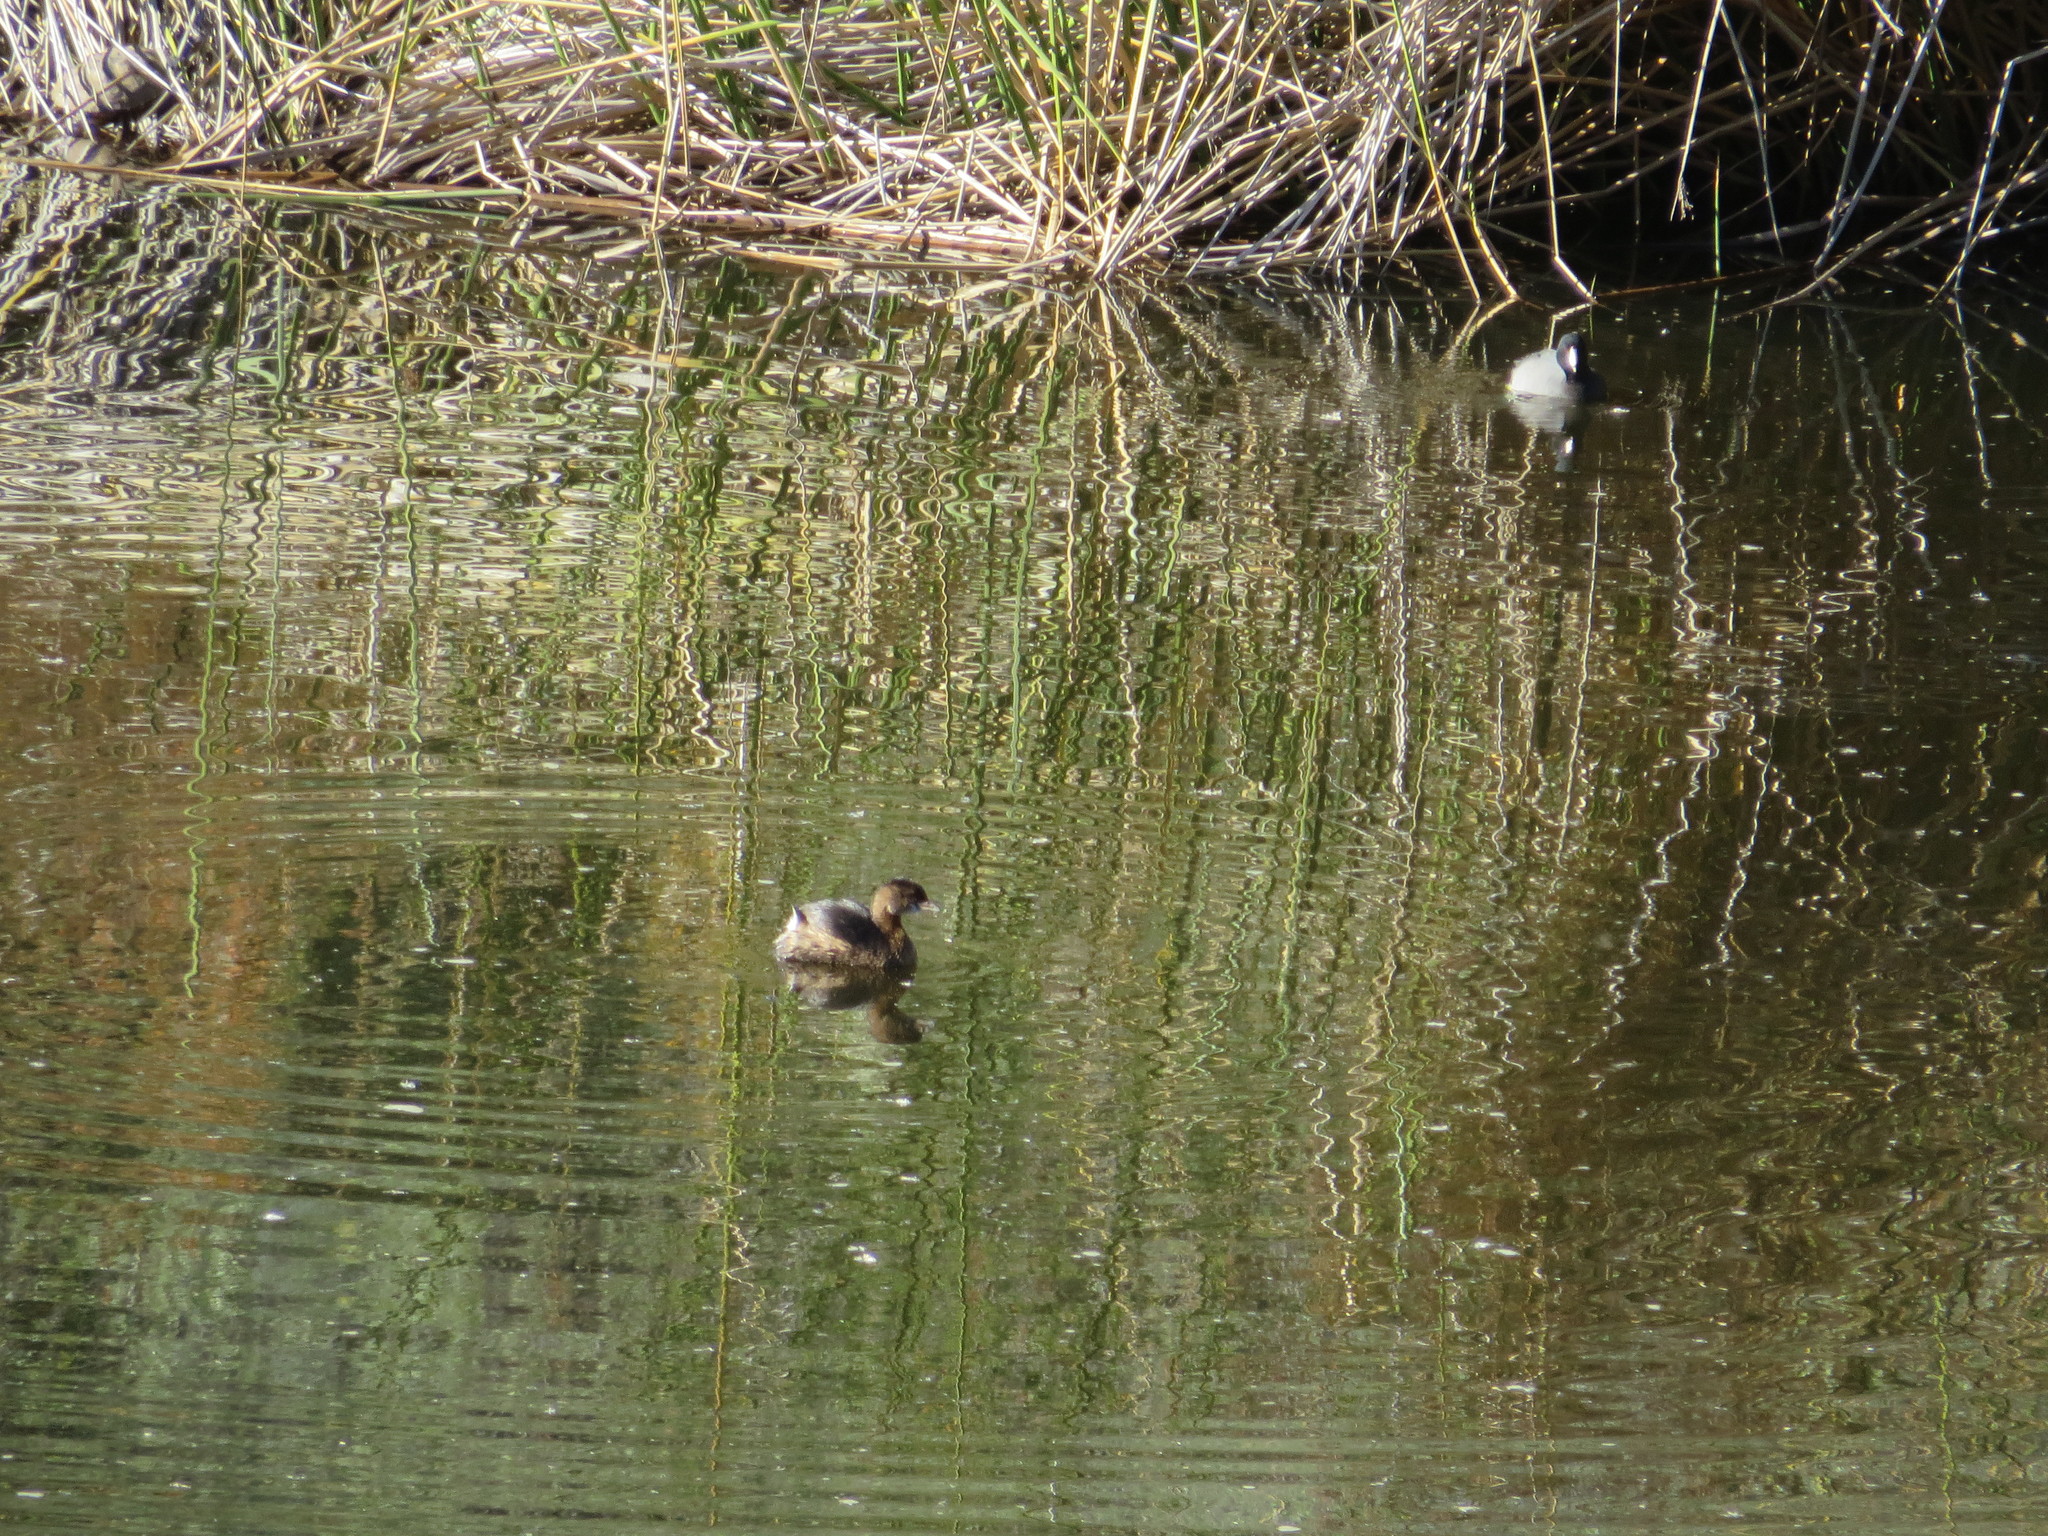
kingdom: Animalia
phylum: Chordata
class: Aves
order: Gruiformes
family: Rallidae
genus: Fulica
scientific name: Fulica americana
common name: American coot
